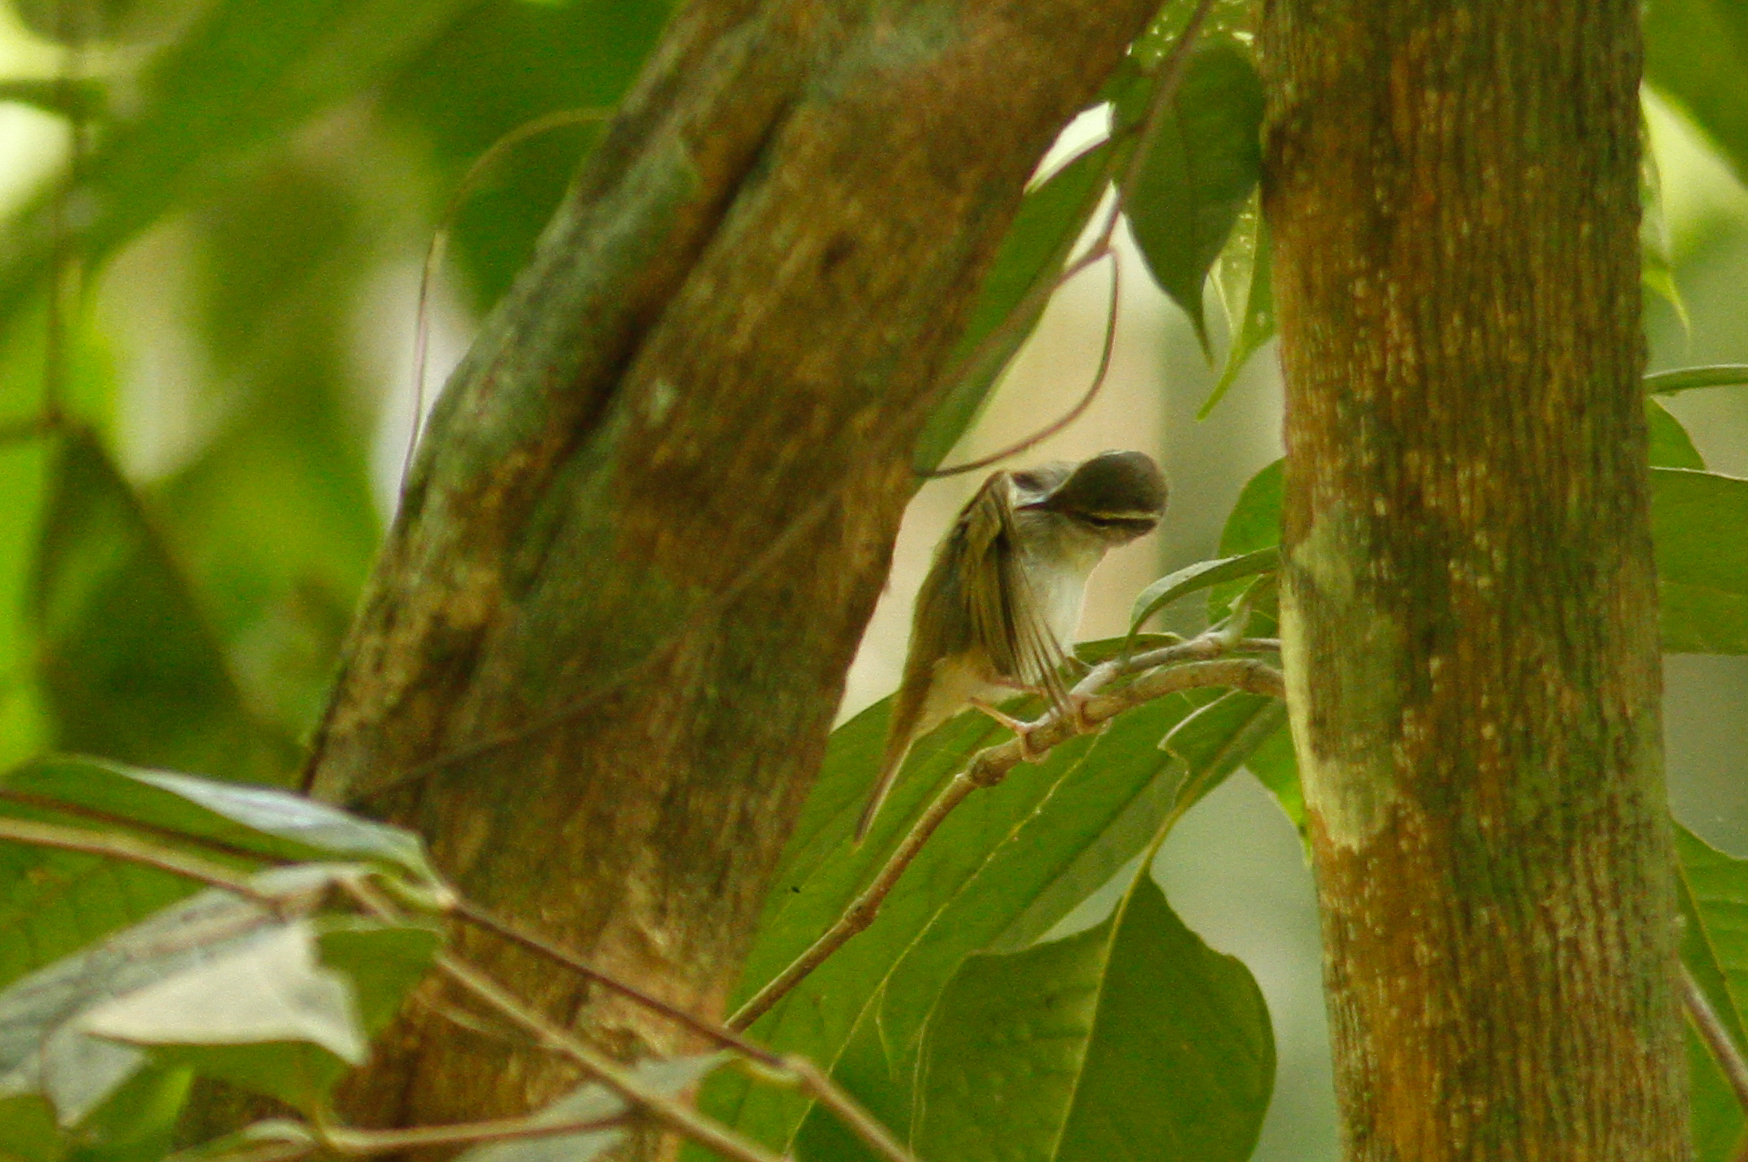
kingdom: Animalia
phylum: Chordata
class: Aves
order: Passeriformes
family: Phylloscopidae
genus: Phylloscopus
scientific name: Phylloscopus tenellipes
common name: Pale-legged leaf warbler
